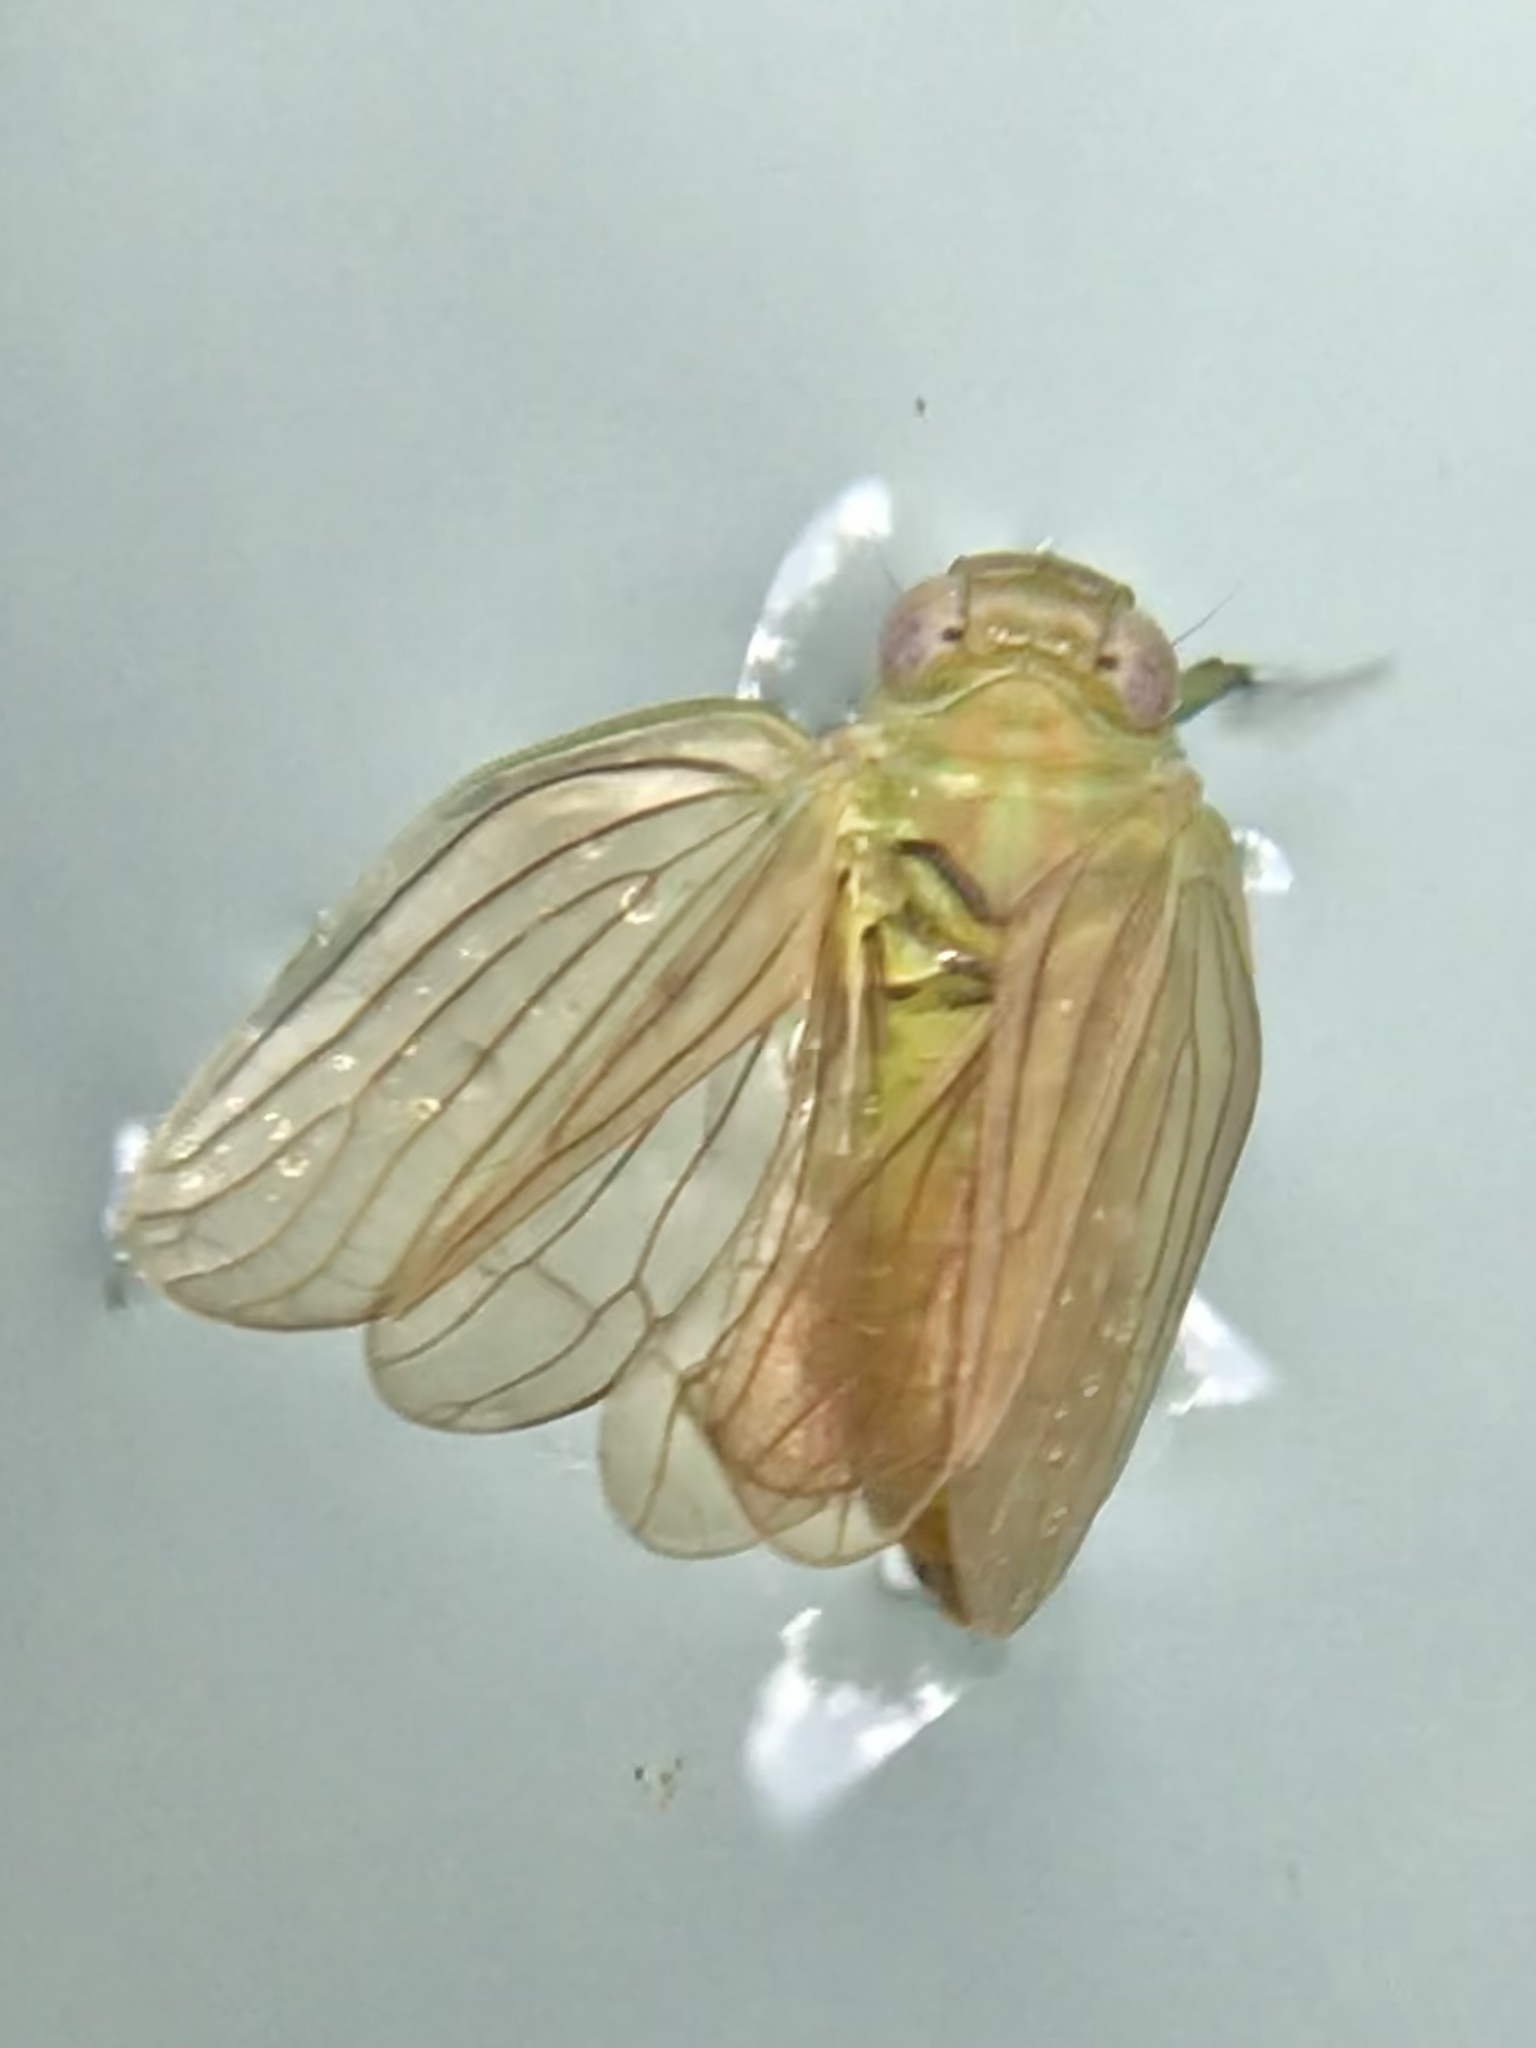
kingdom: Animalia
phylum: Arthropoda
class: Insecta
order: Hemiptera
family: Issidae
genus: Aplos
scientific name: Aplos simplex
